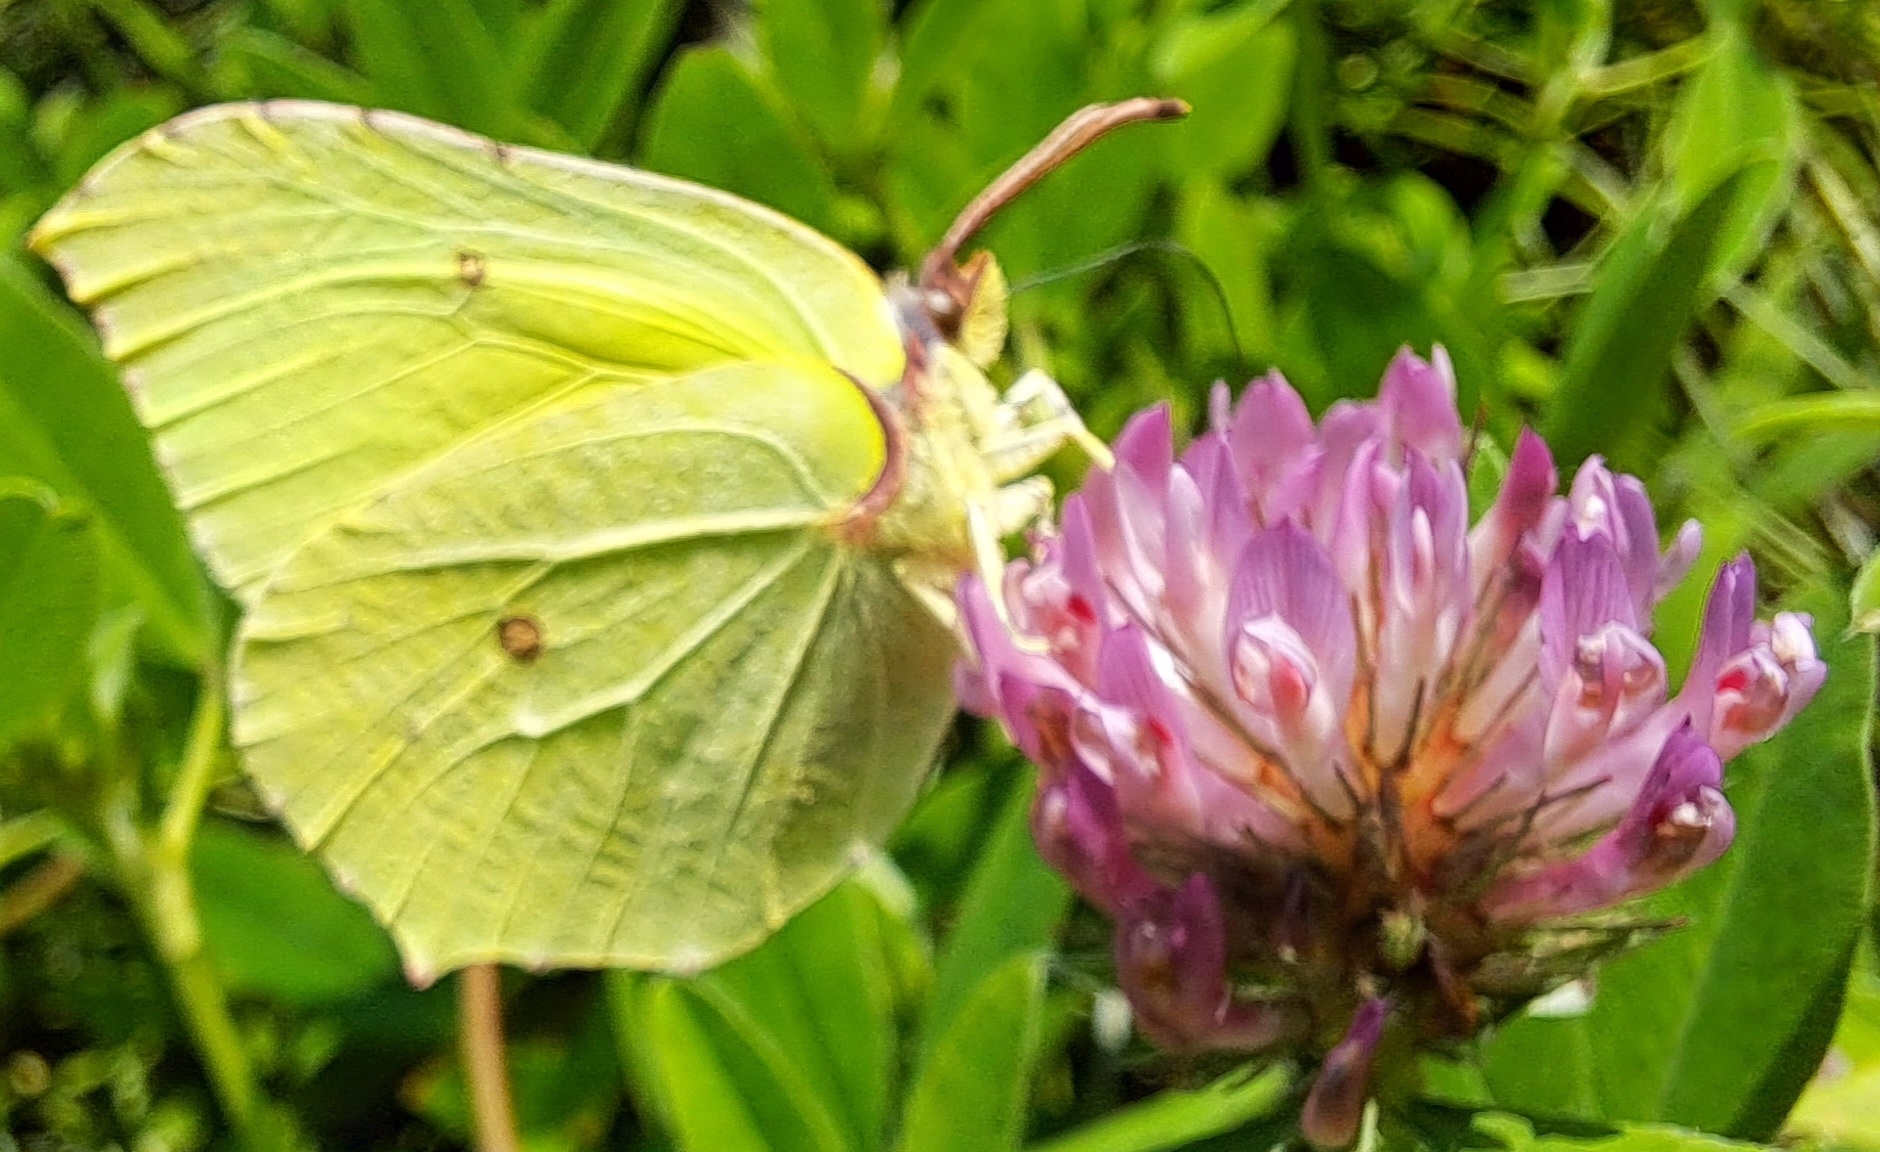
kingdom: Animalia
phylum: Arthropoda
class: Insecta
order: Lepidoptera
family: Pieridae
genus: Gonepteryx
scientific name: Gonepteryx rhamni
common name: Brimstone
